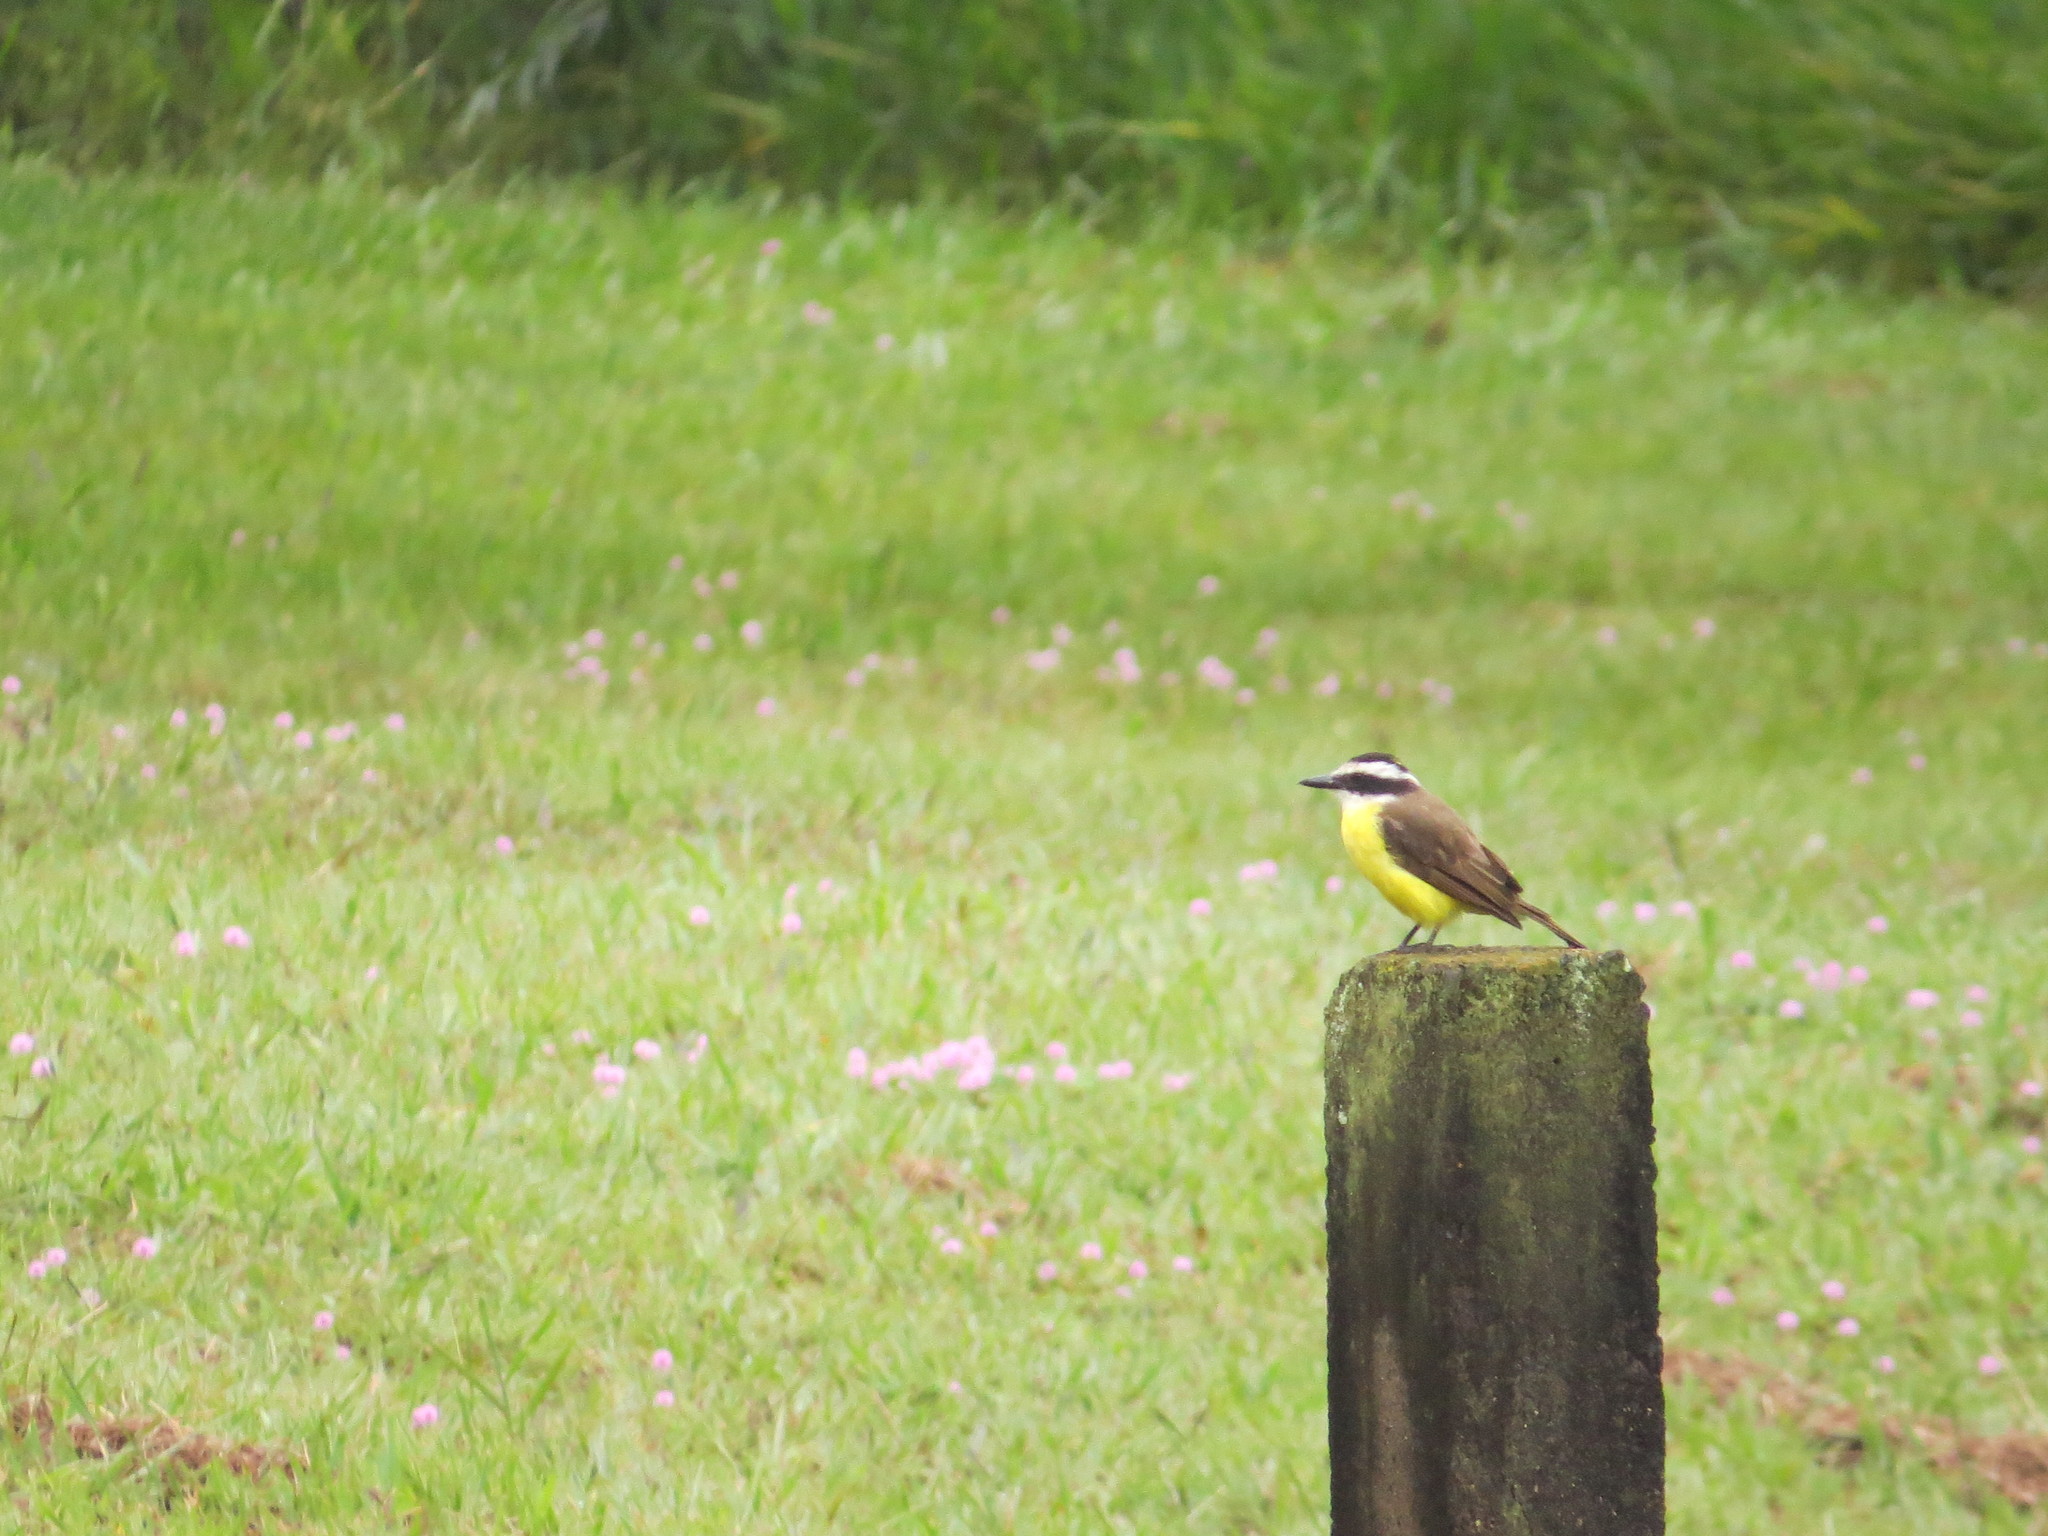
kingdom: Animalia
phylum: Chordata
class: Aves
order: Passeriformes
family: Tyrannidae
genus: Pitangus
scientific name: Pitangus sulphuratus
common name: Great kiskadee
